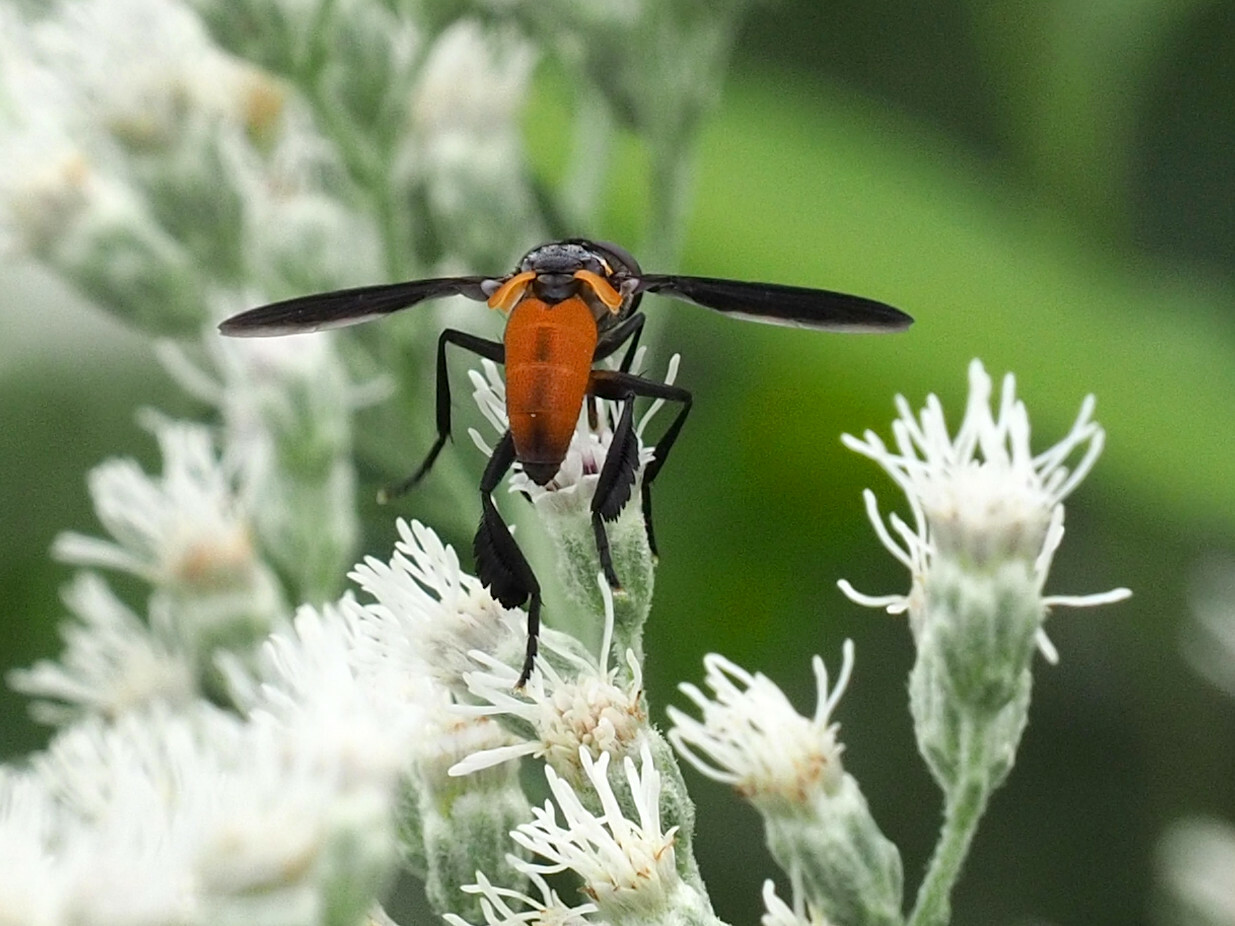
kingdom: Animalia
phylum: Arthropoda
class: Insecta
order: Diptera
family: Tachinidae
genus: Trichopoda
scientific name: Trichopoda pennipes
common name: Tachinid fly
